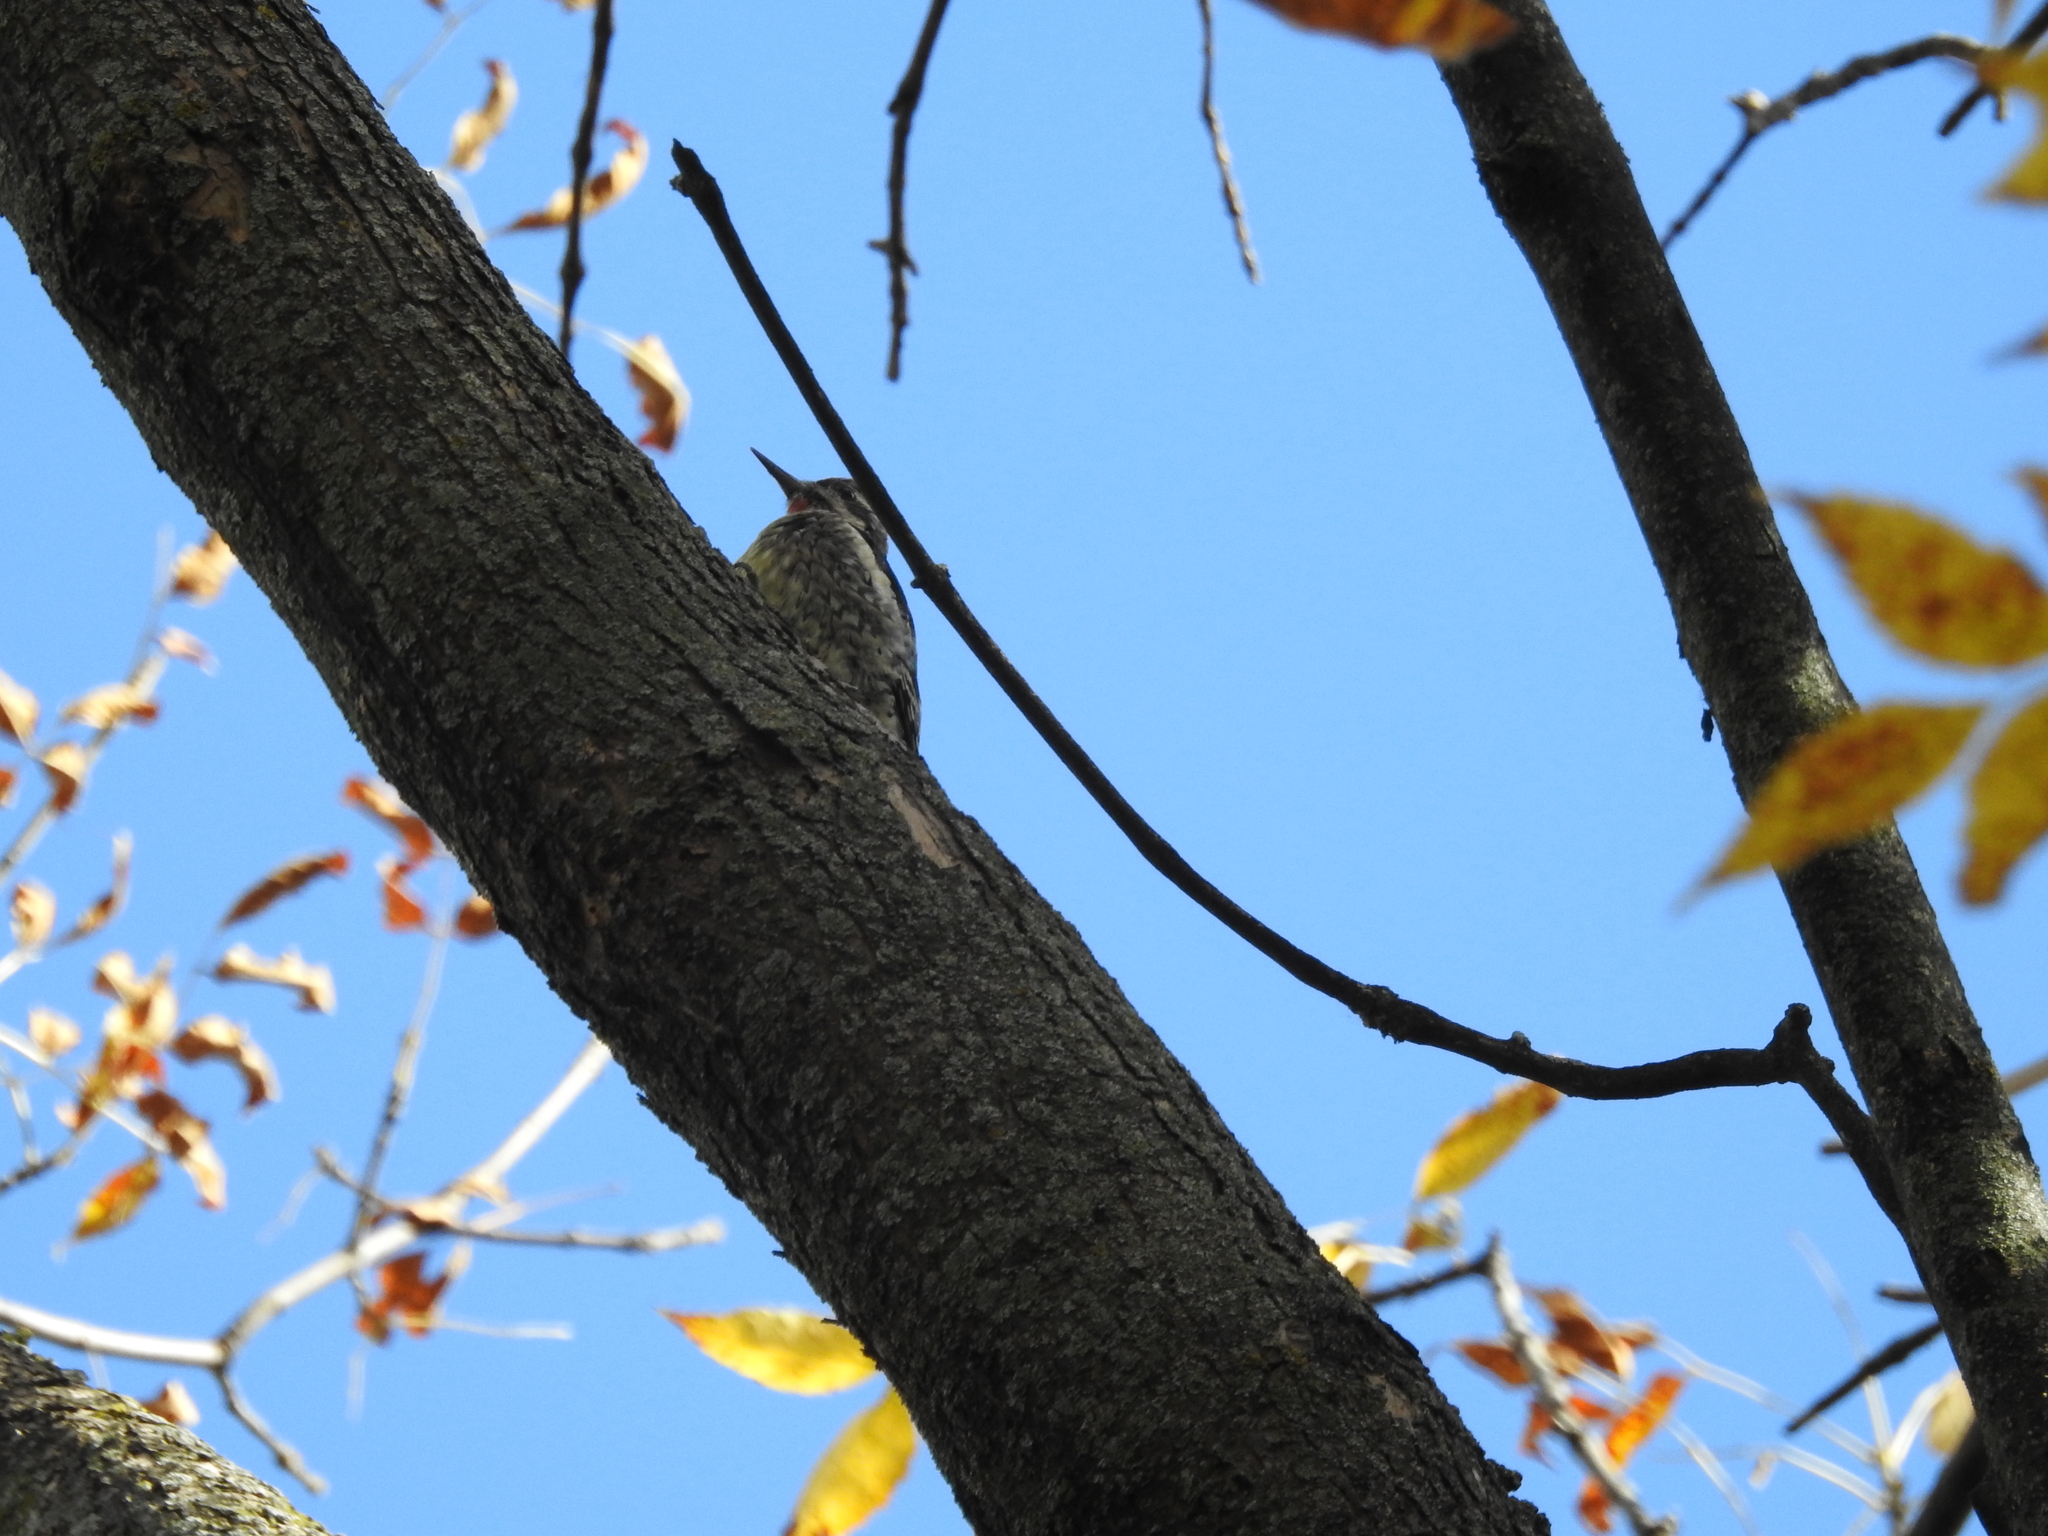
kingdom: Animalia
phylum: Chordata
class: Aves
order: Piciformes
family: Picidae
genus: Sphyrapicus
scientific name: Sphyrapicus varius
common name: Yellow-bellied sapsucker
